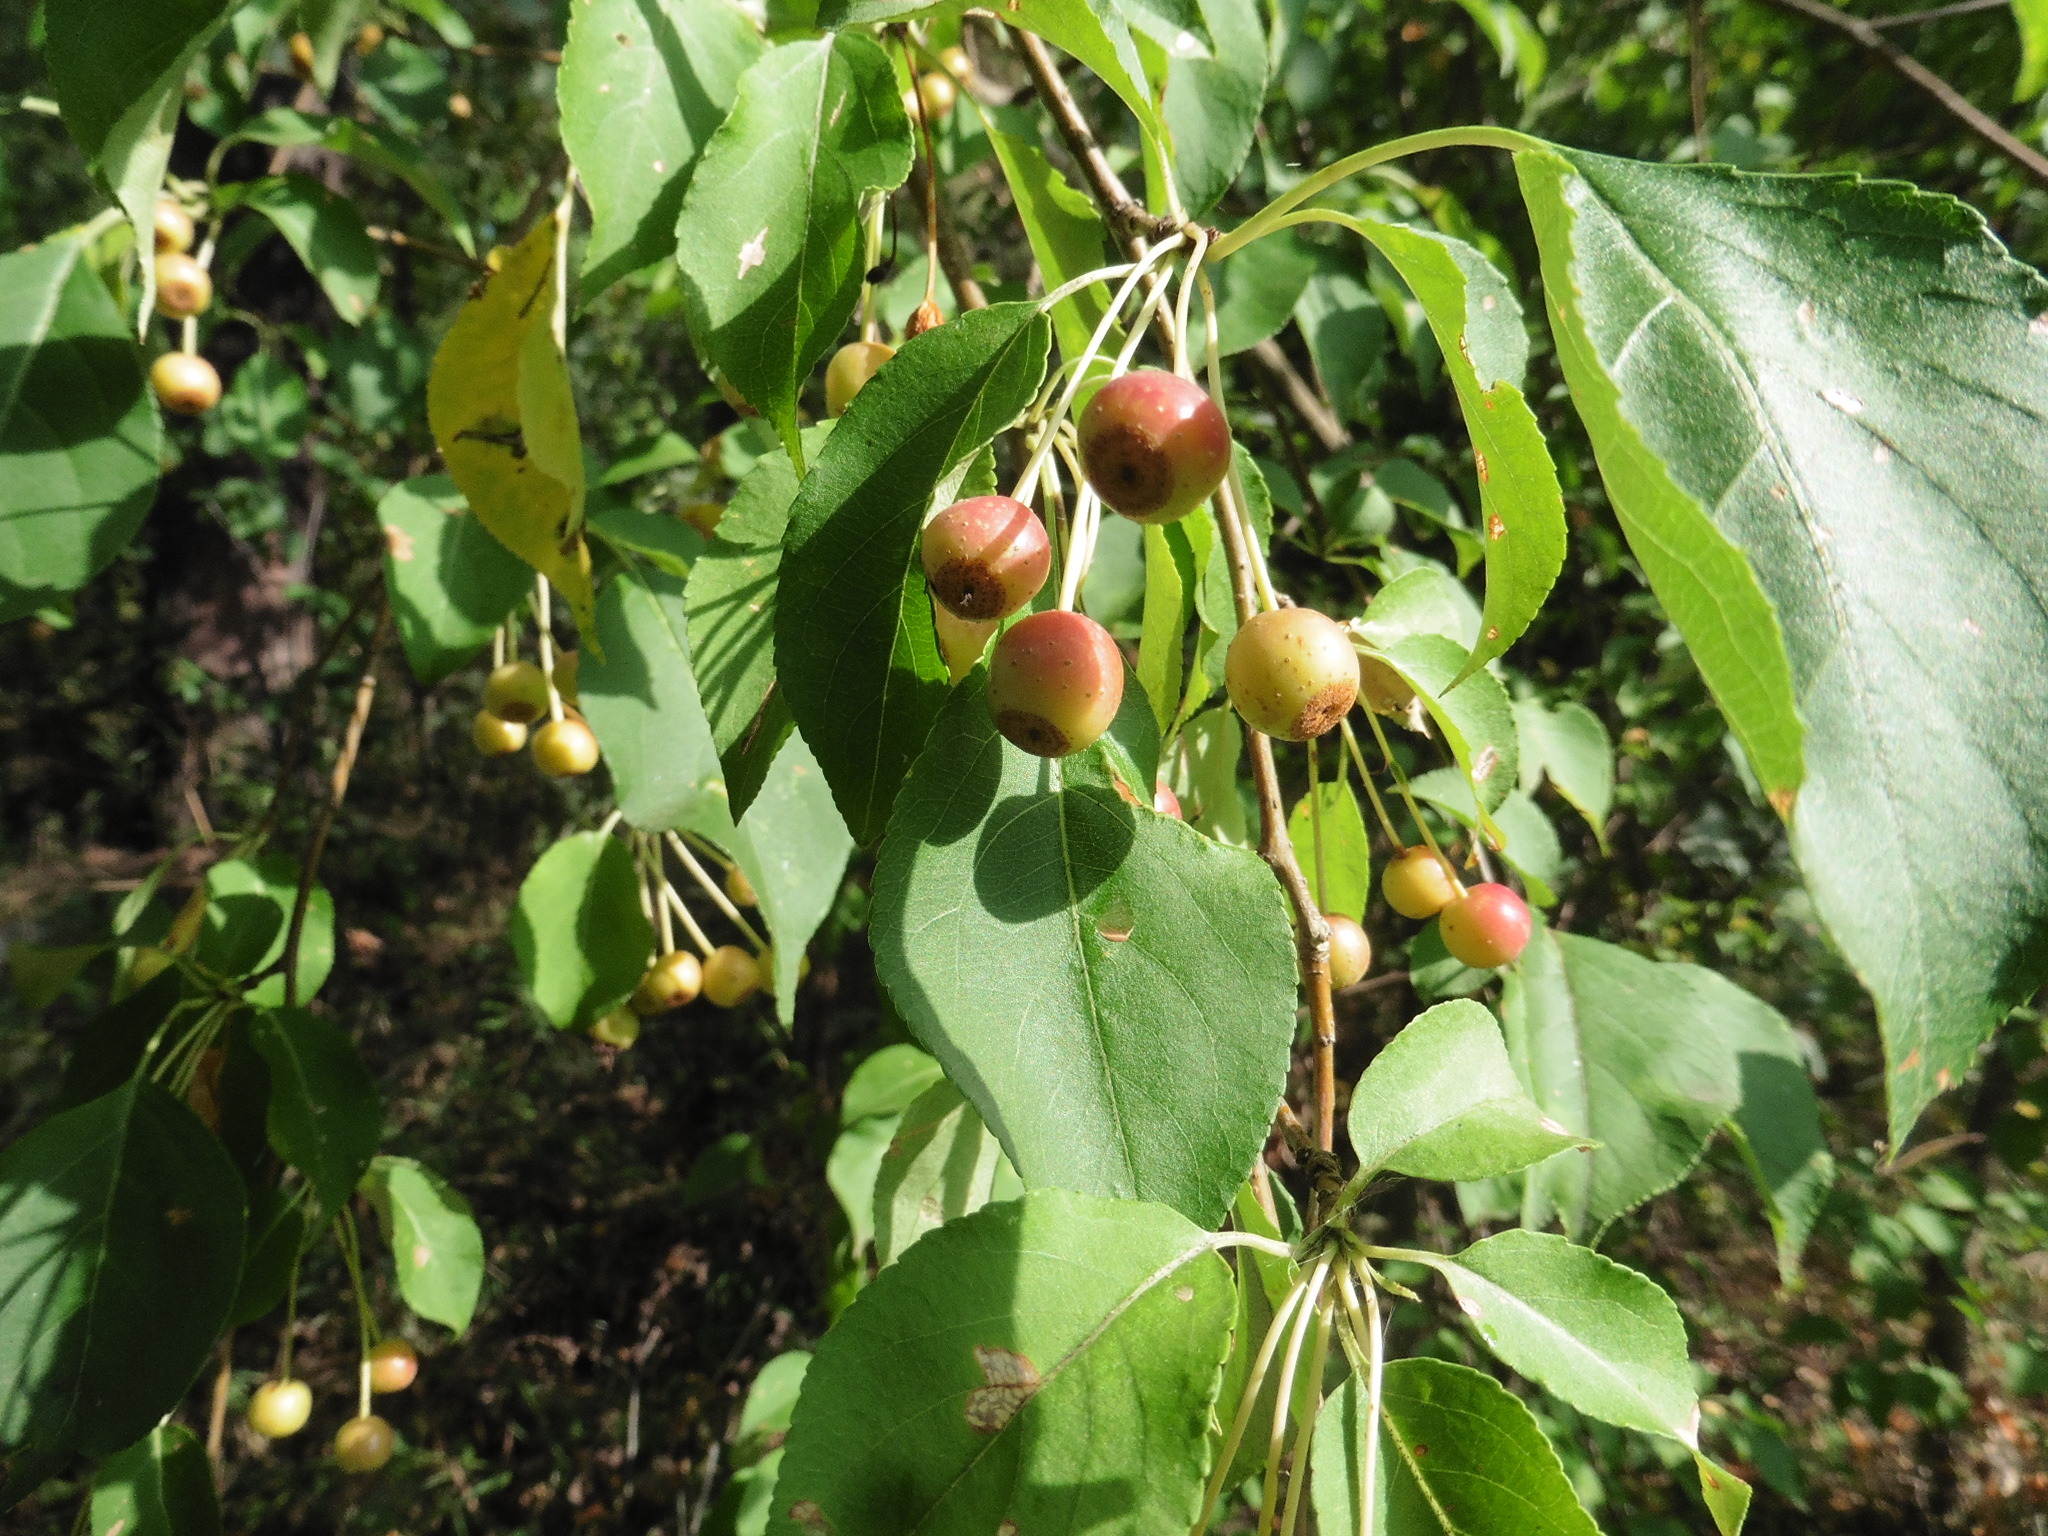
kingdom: Plantae
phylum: Tracheophyta
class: Magnoliopsida
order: Rosales
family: Rosaceae
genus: Malus
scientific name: Malus baccata
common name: Siberian crab
